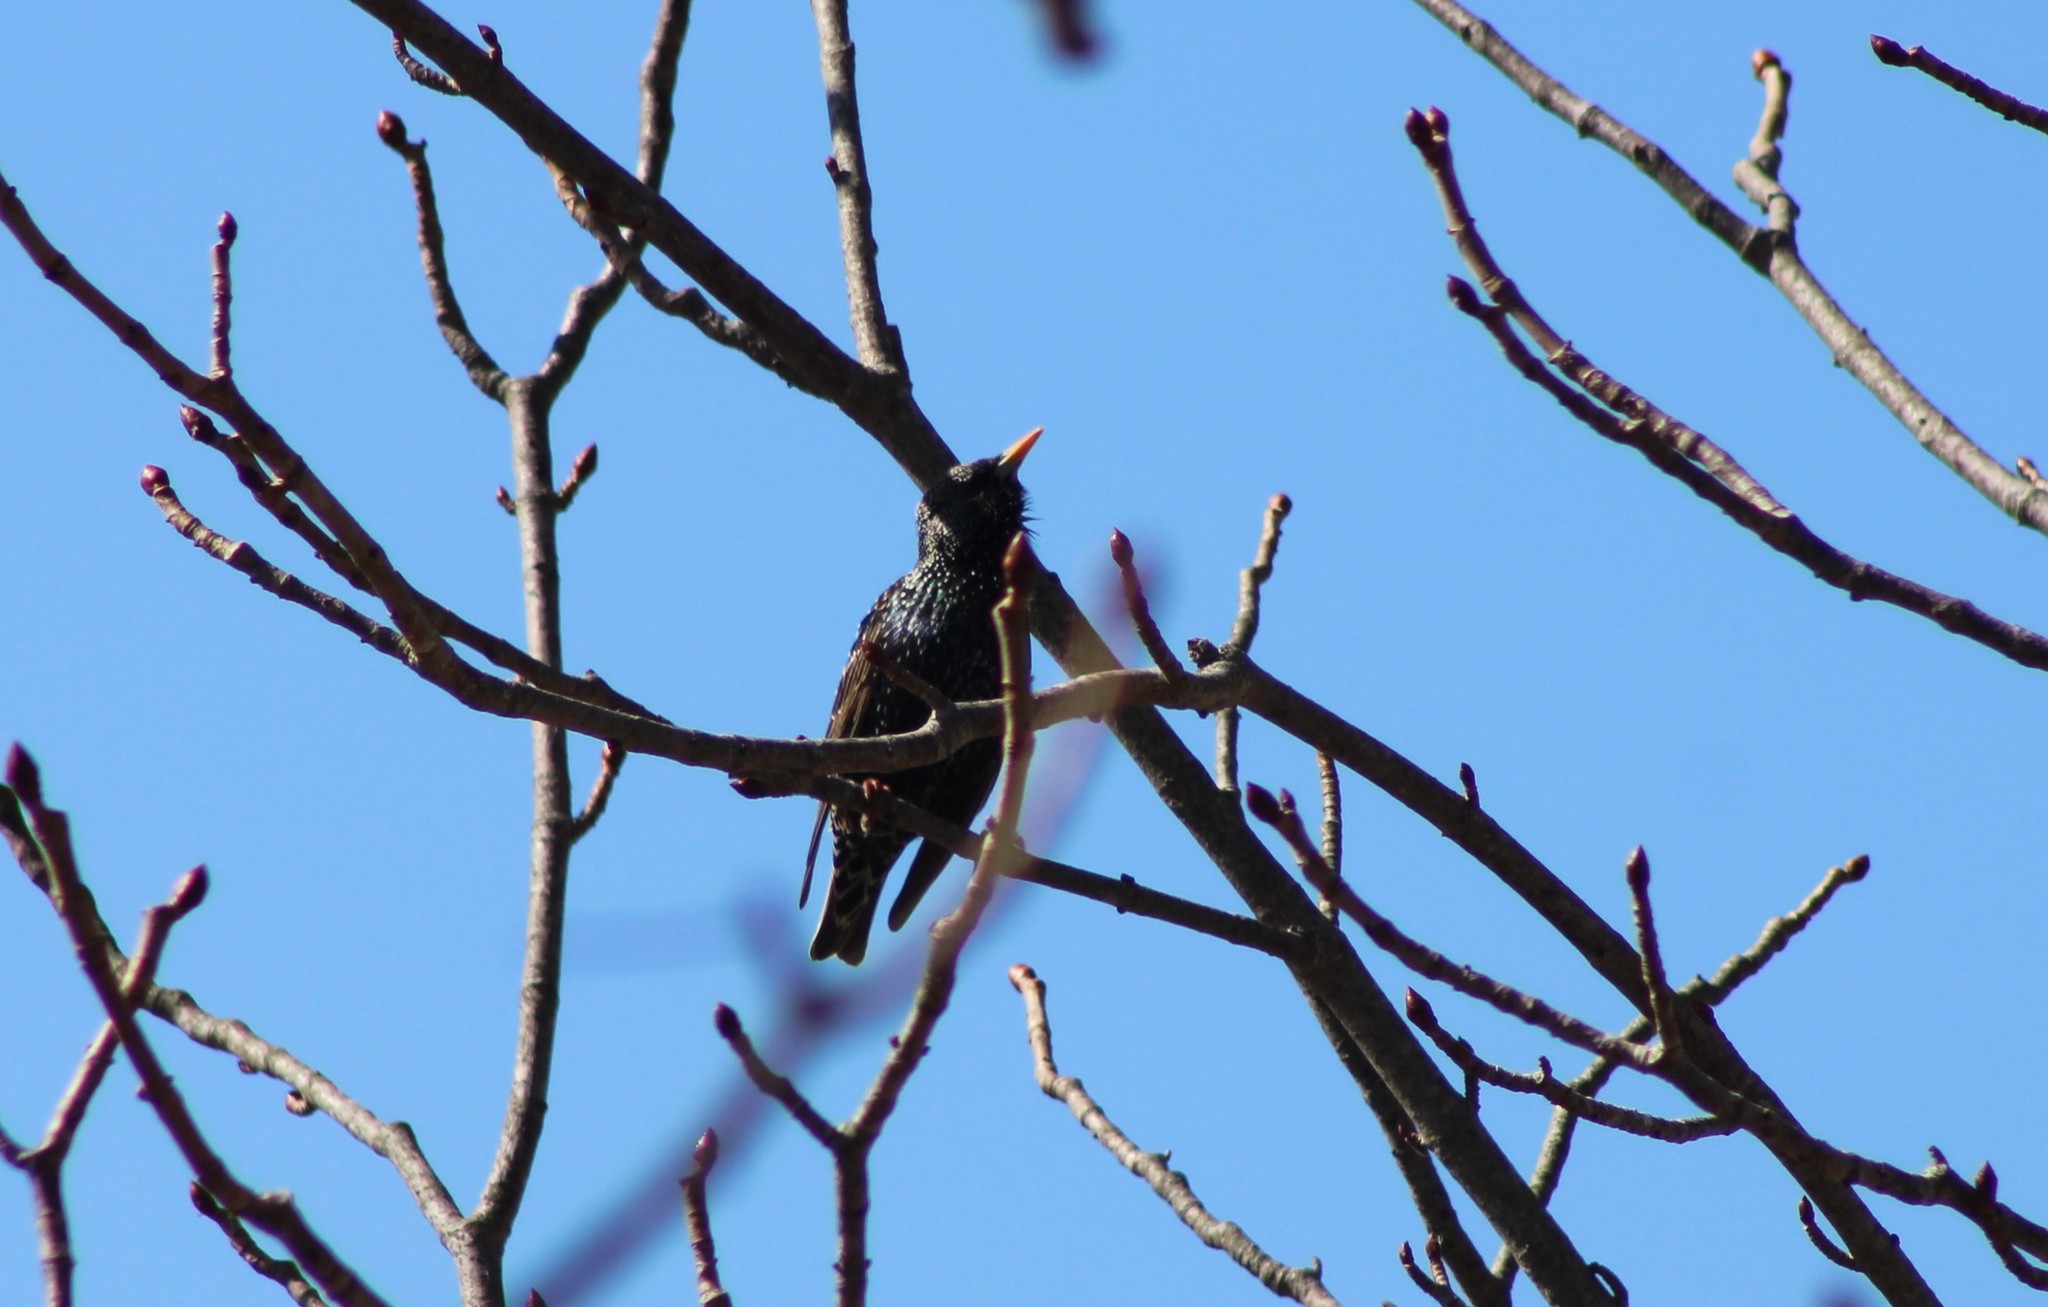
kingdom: Animalia
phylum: Chordata
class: Aves
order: Passeriformes
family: Sturnidae
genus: Sturnus
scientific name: Sturnus vulgaris
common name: Common starling
